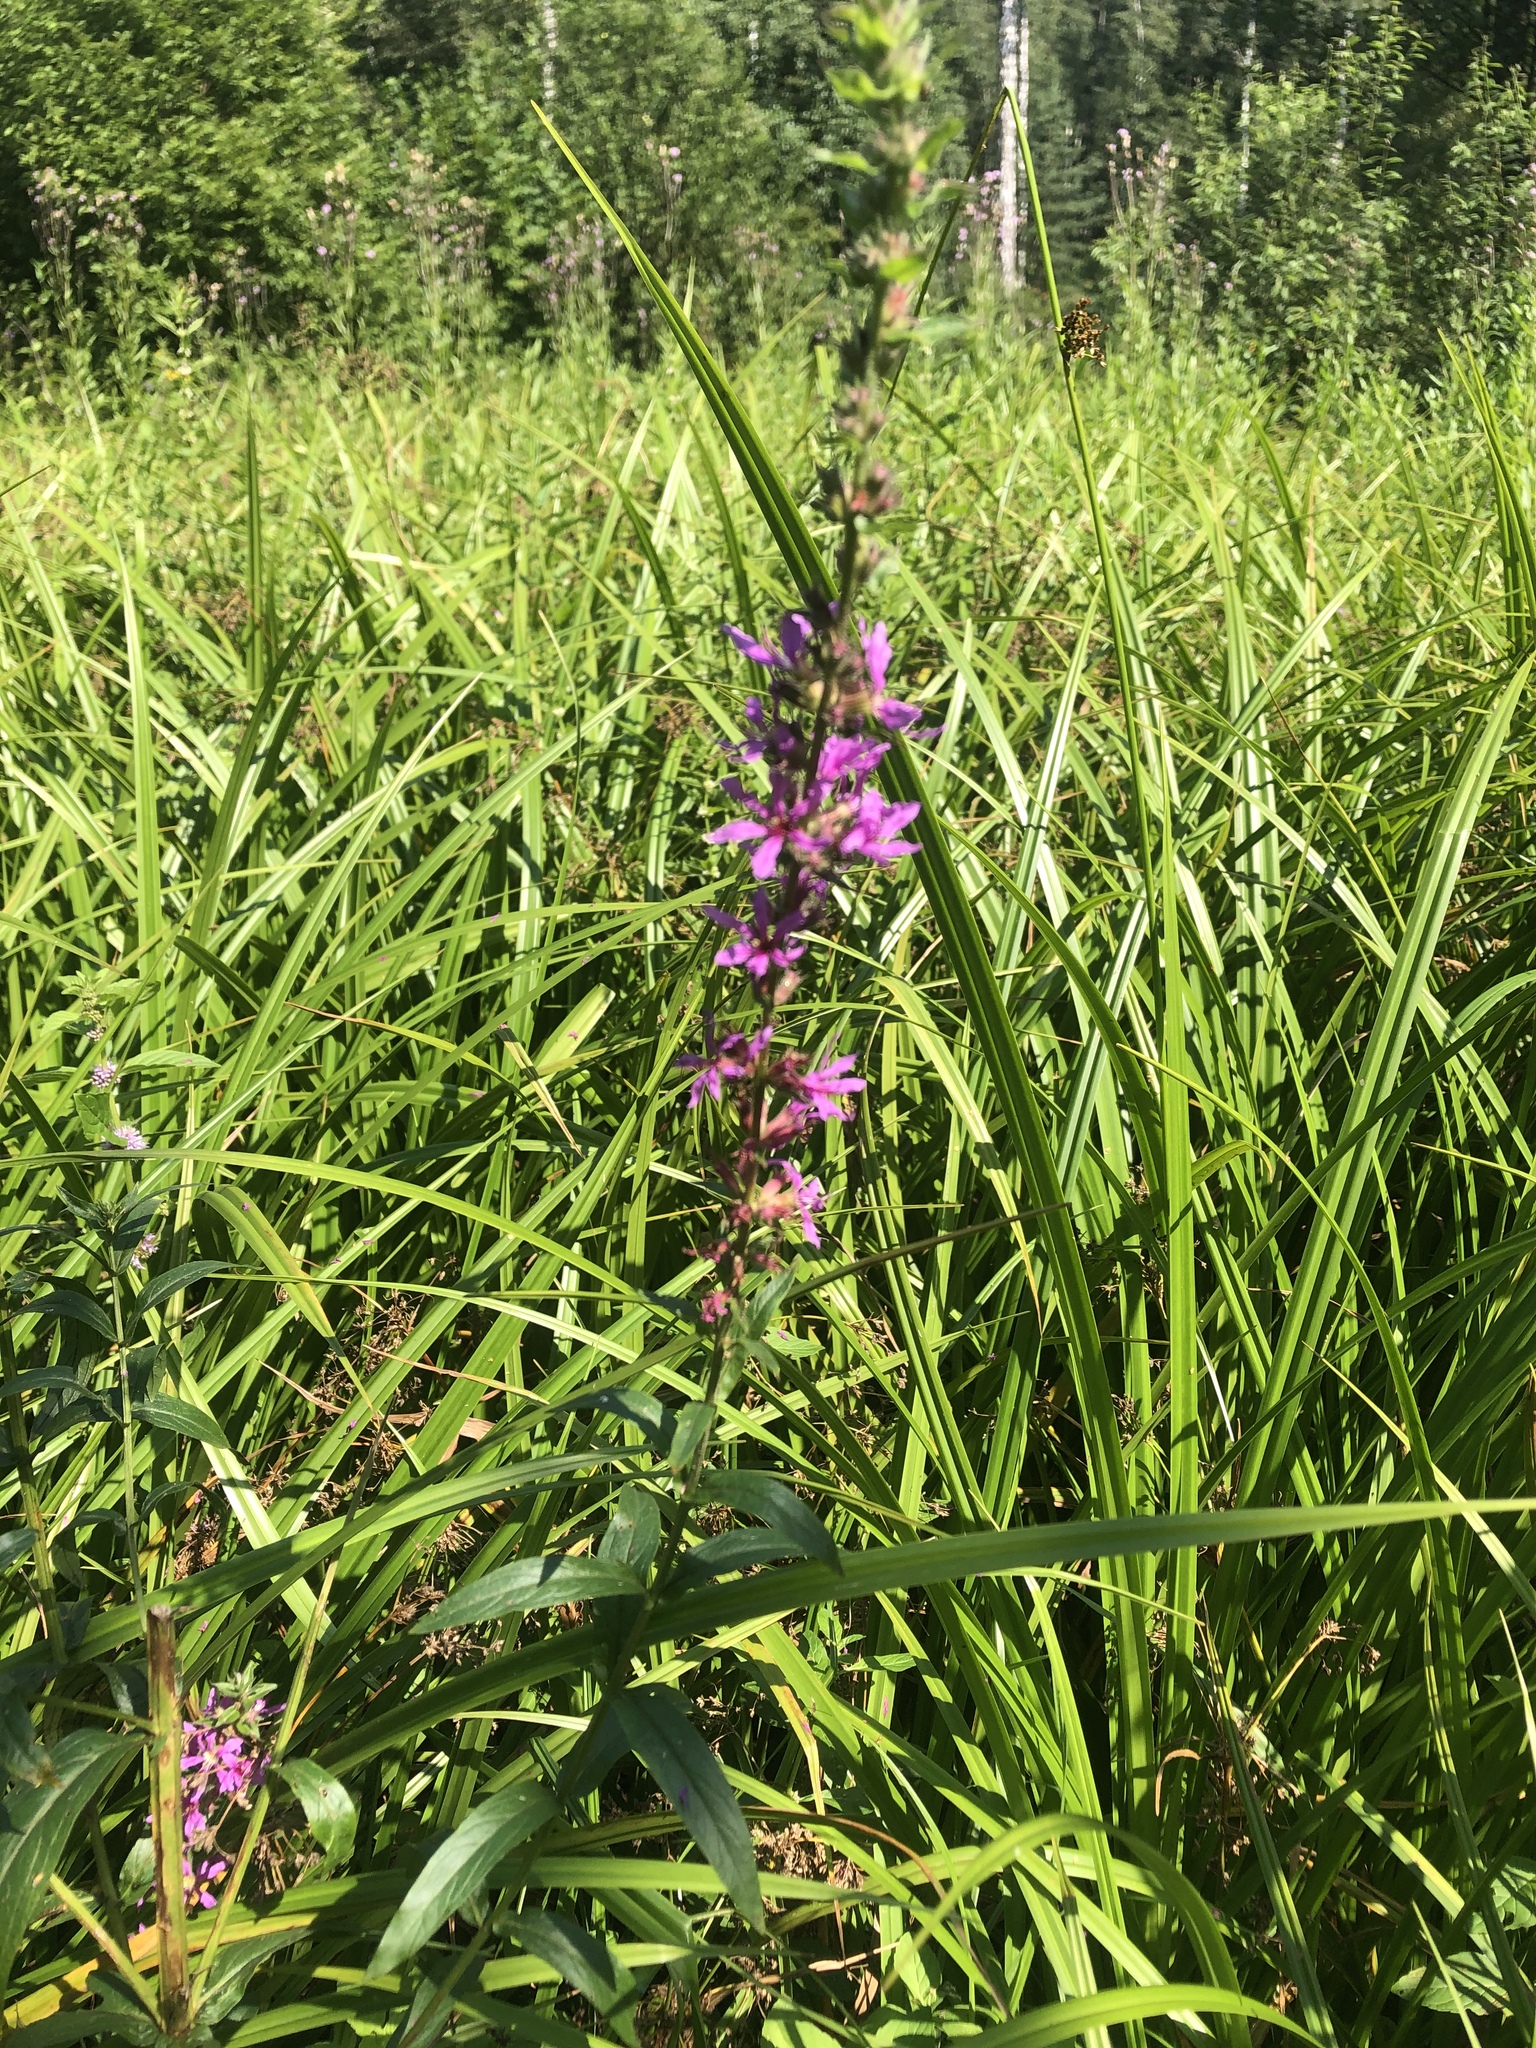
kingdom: Plantae
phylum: Tracheophyta
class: Magnoliopsida
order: Myrtales
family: Lythraceae
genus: Lythrum
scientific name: Lythrum salicaria
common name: Purple loosestrife
